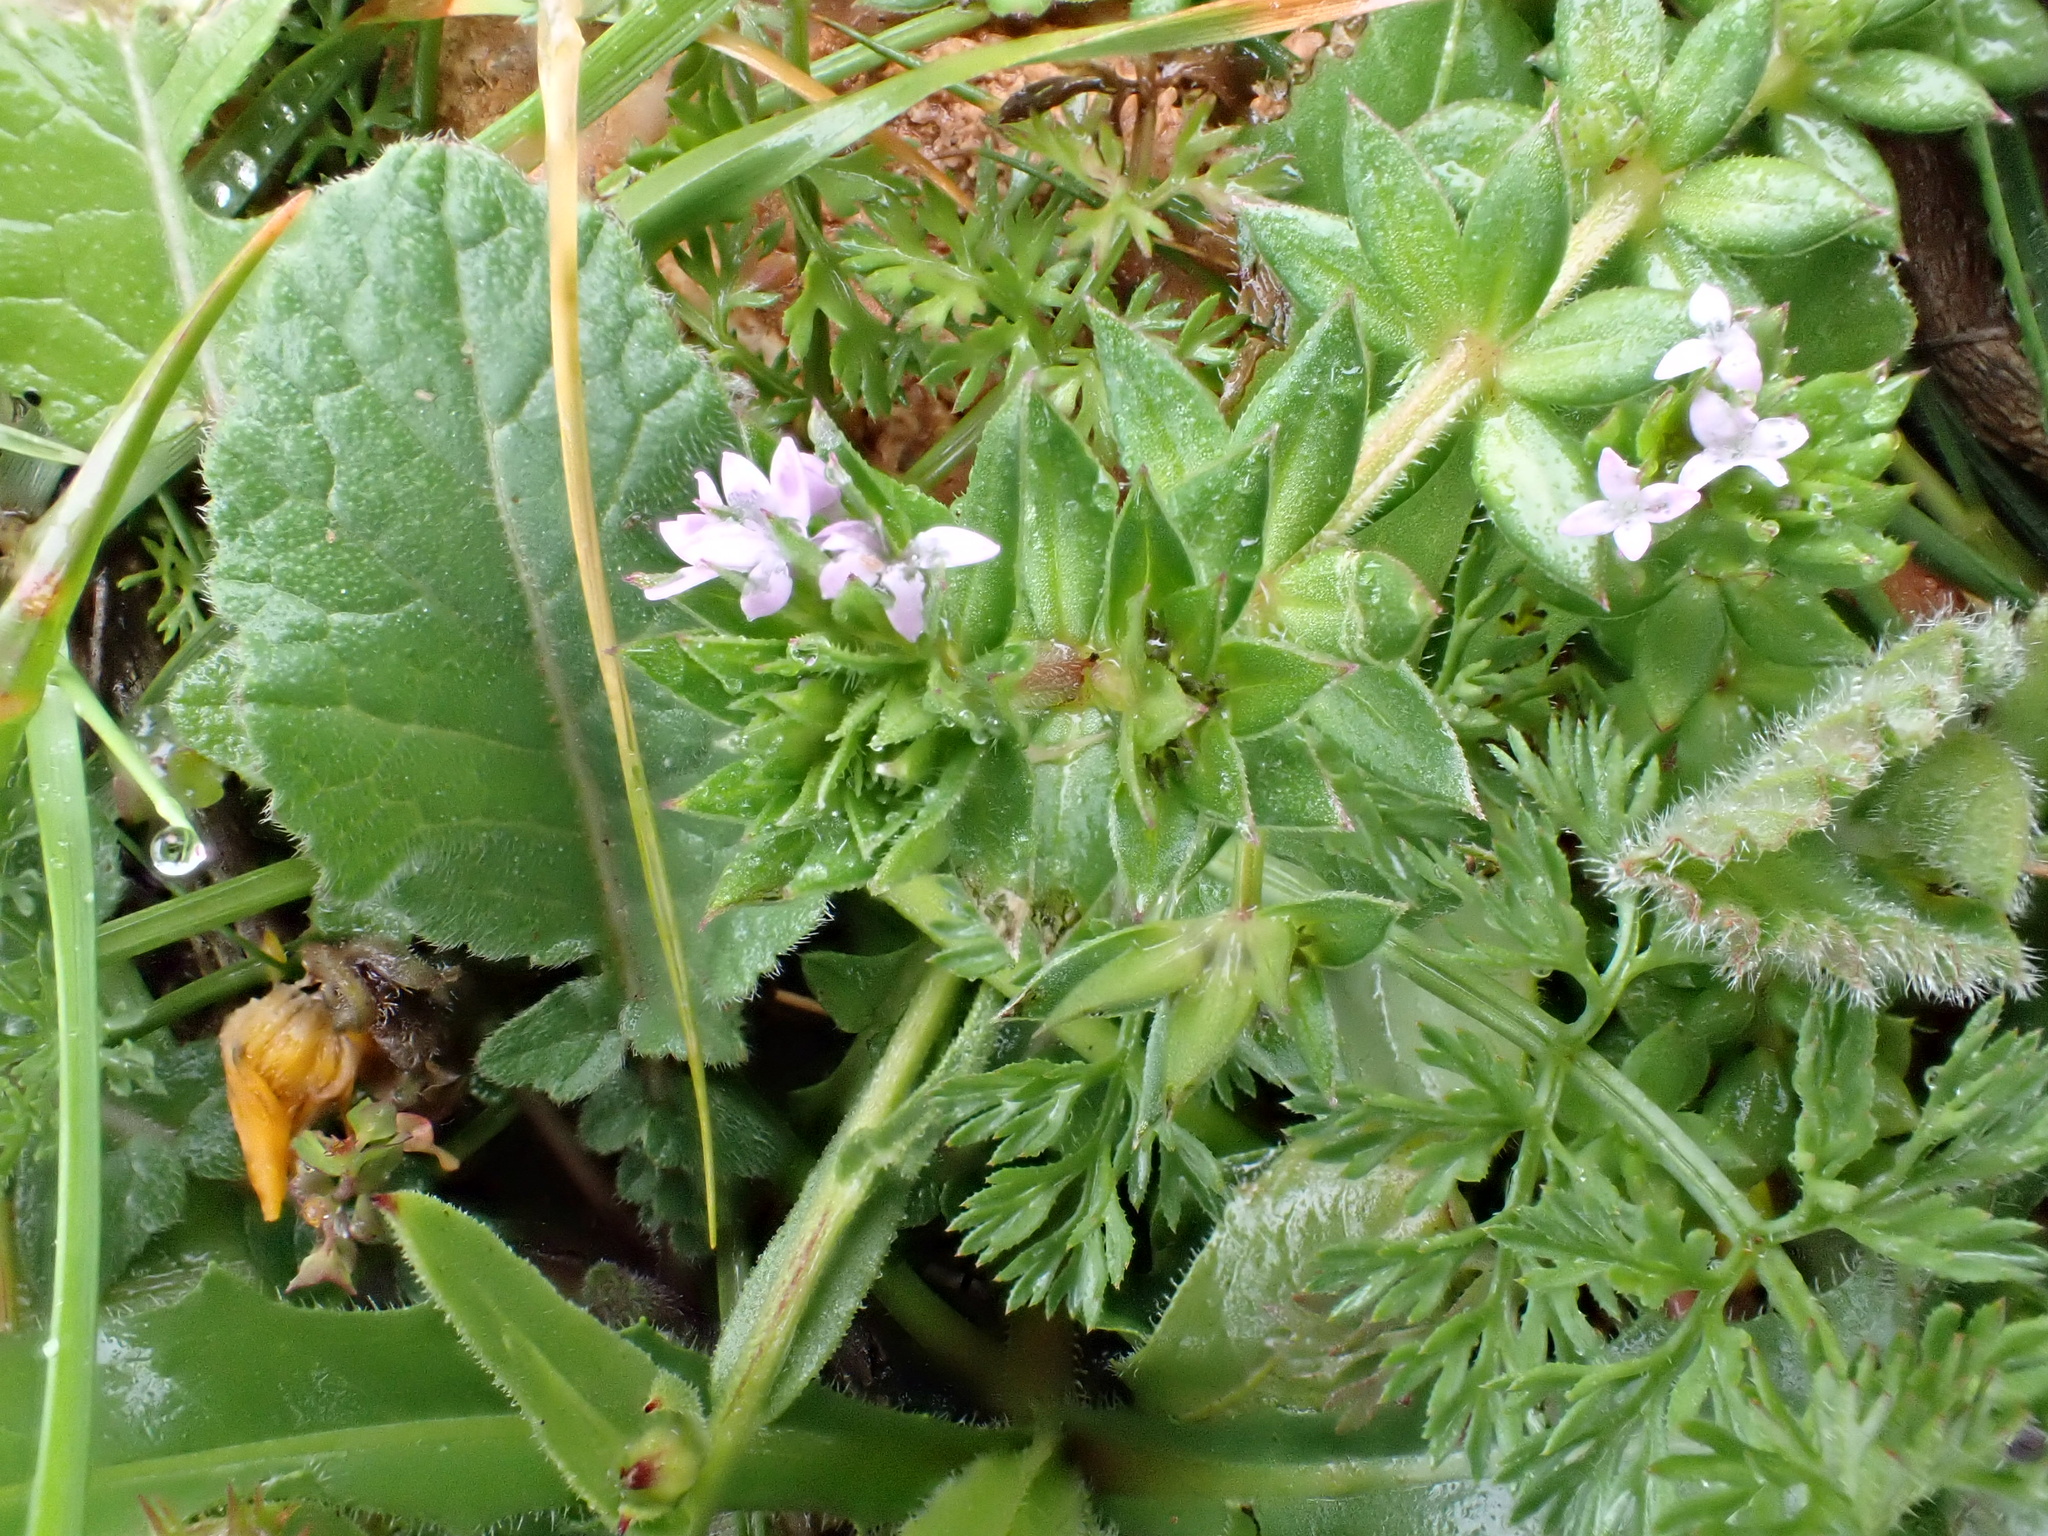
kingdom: Plantae
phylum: Tracheophyta
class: Magnoliopsida
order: Gentianales
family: Rubiaceae
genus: Sherardia
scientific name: Sherardia arvensis
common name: Field madder
